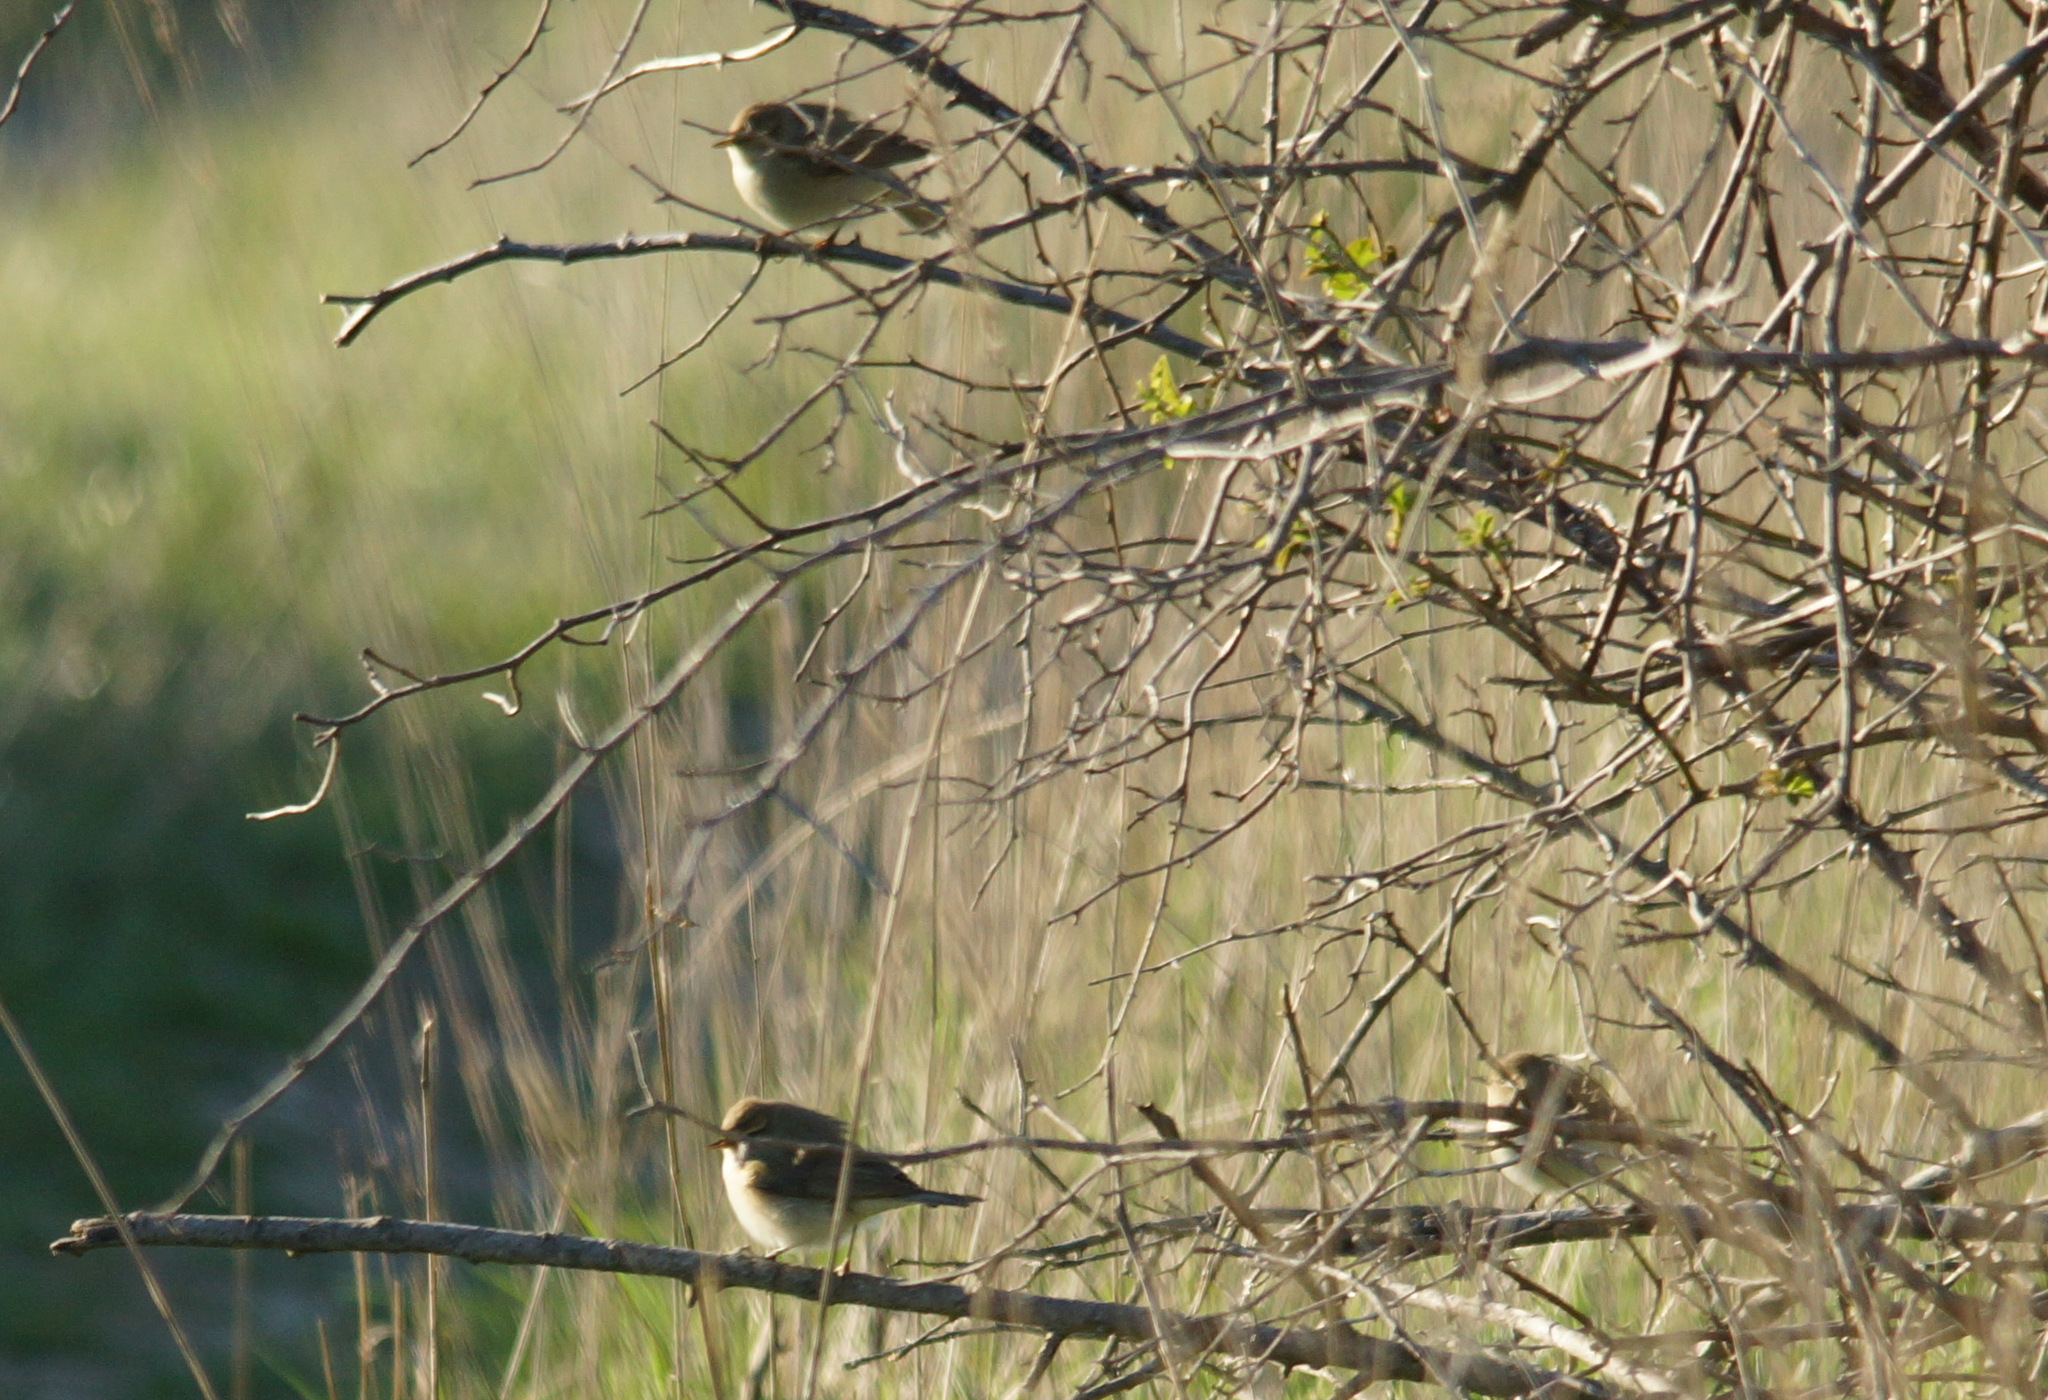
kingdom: Animalia
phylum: Chordata
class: Aves
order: Passeriformes
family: Phylloscopidae
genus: Phylloscopus
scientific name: Phylloscopus trochilus
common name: Willow warbler
